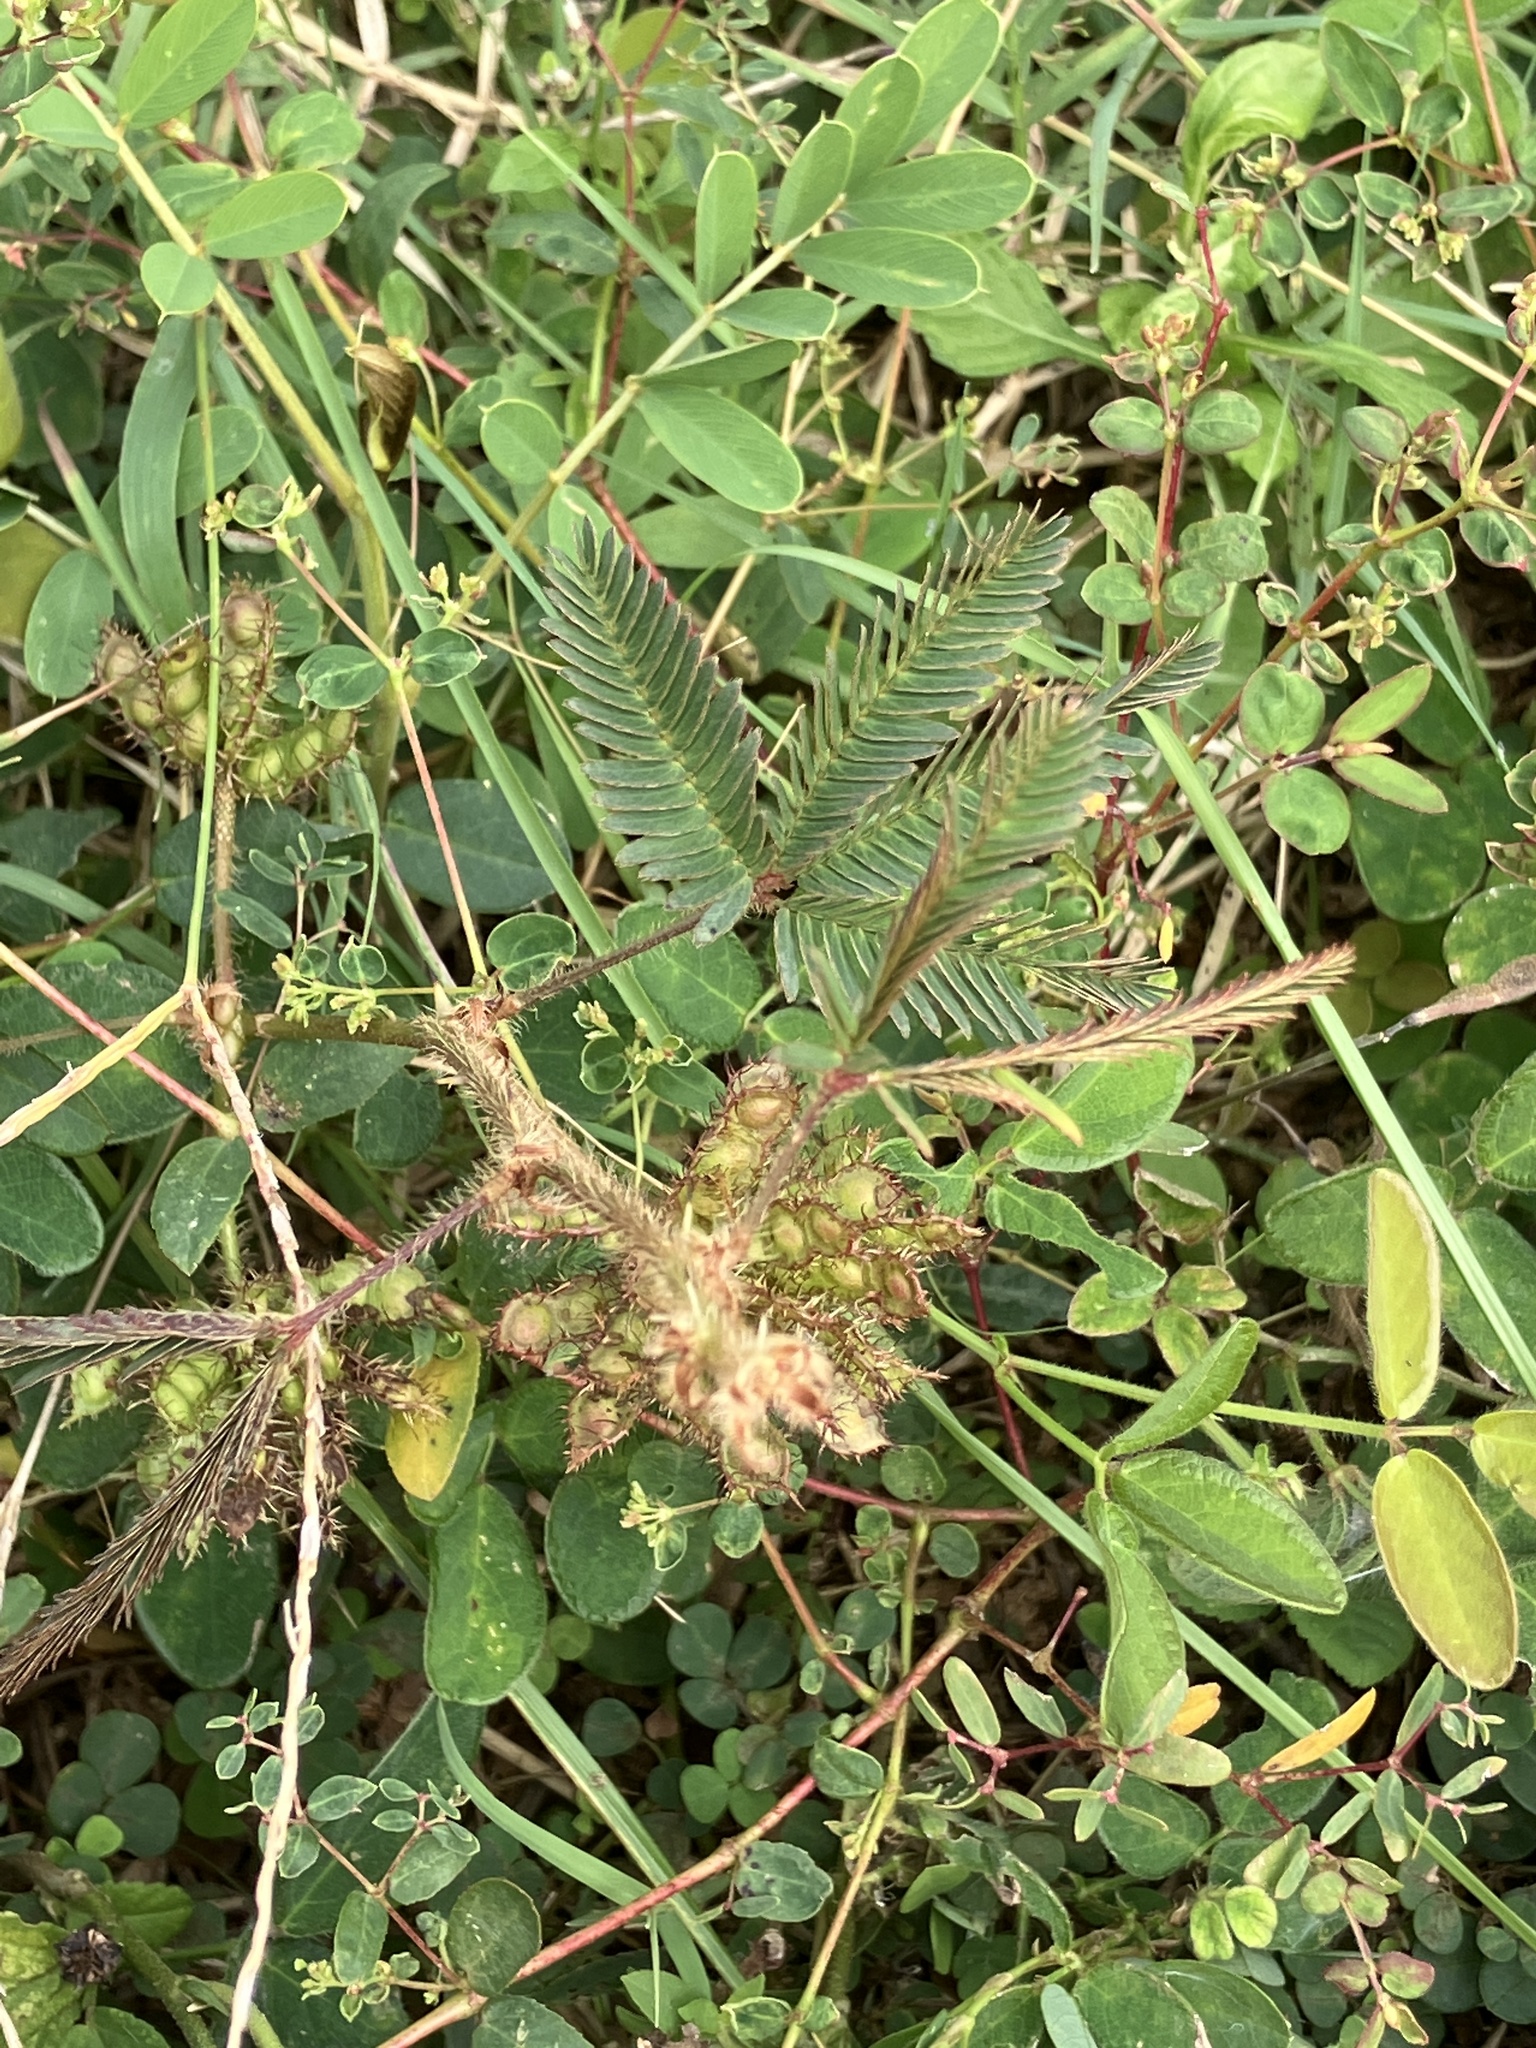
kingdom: Plantae
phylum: Tracheophyta
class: Magnoliopsida
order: Fabales
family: Fabaceae
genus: Mimosa
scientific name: Mimosa pudica
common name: Sensitive plant
